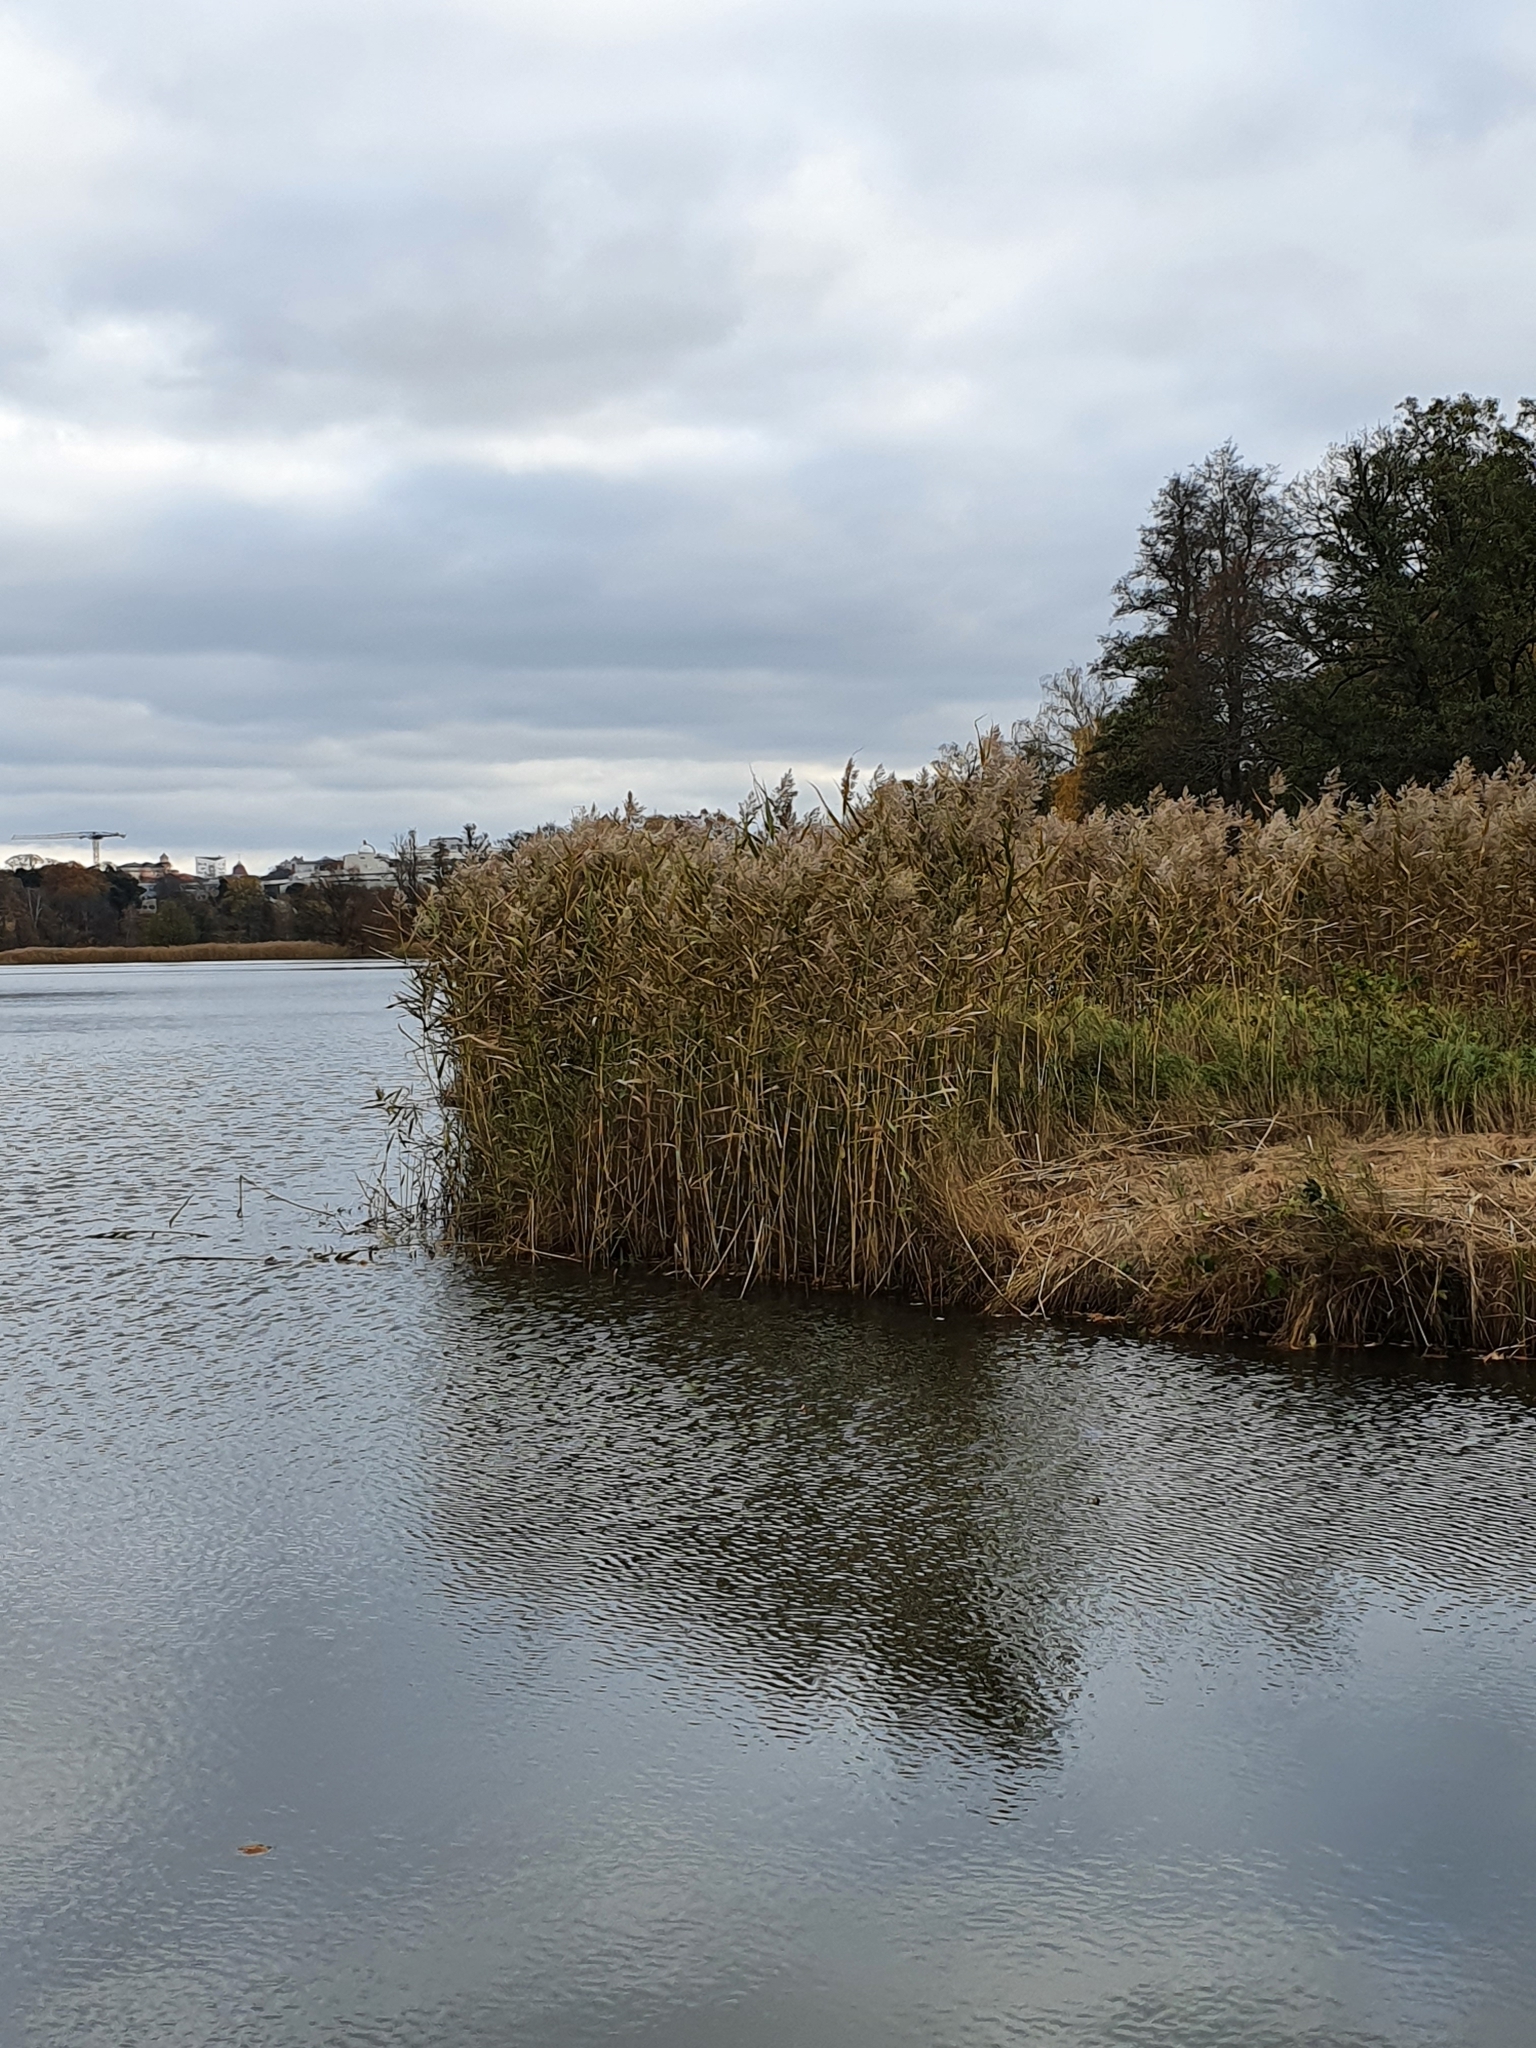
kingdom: Plantae
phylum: Tracheophyta
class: Liliopsida
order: Poales
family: Poaceae
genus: Phragmites
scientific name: Phragmites australis
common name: Common reed
